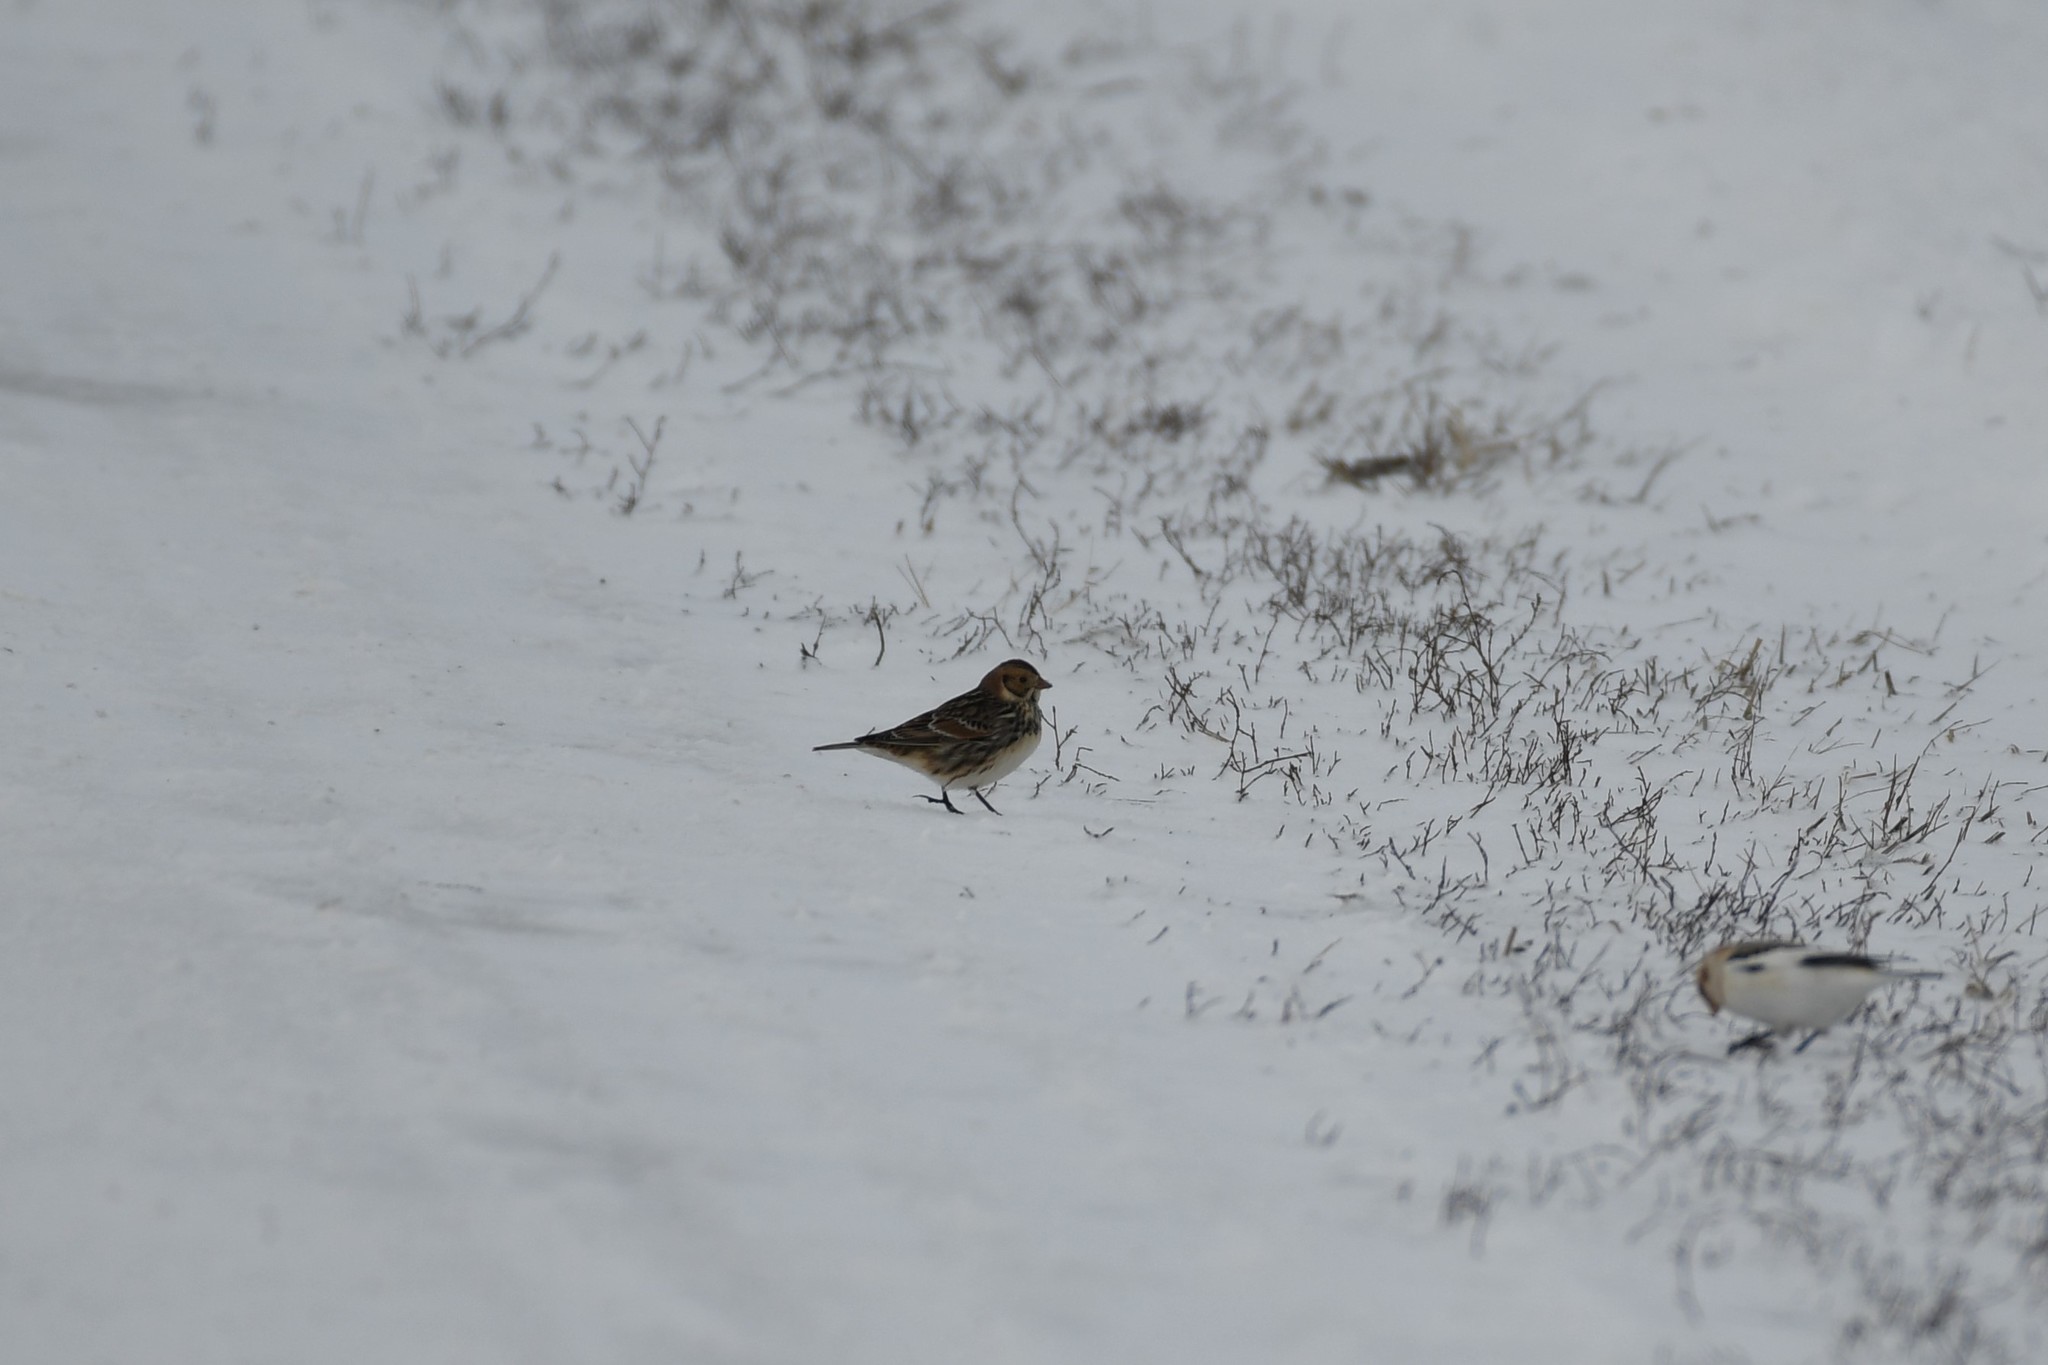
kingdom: Animalia
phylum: Chordata
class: Aves
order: Passeriformes
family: Calcariidae
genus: Calcarius
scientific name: Calcarius lapponicus
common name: Lapland longspur
